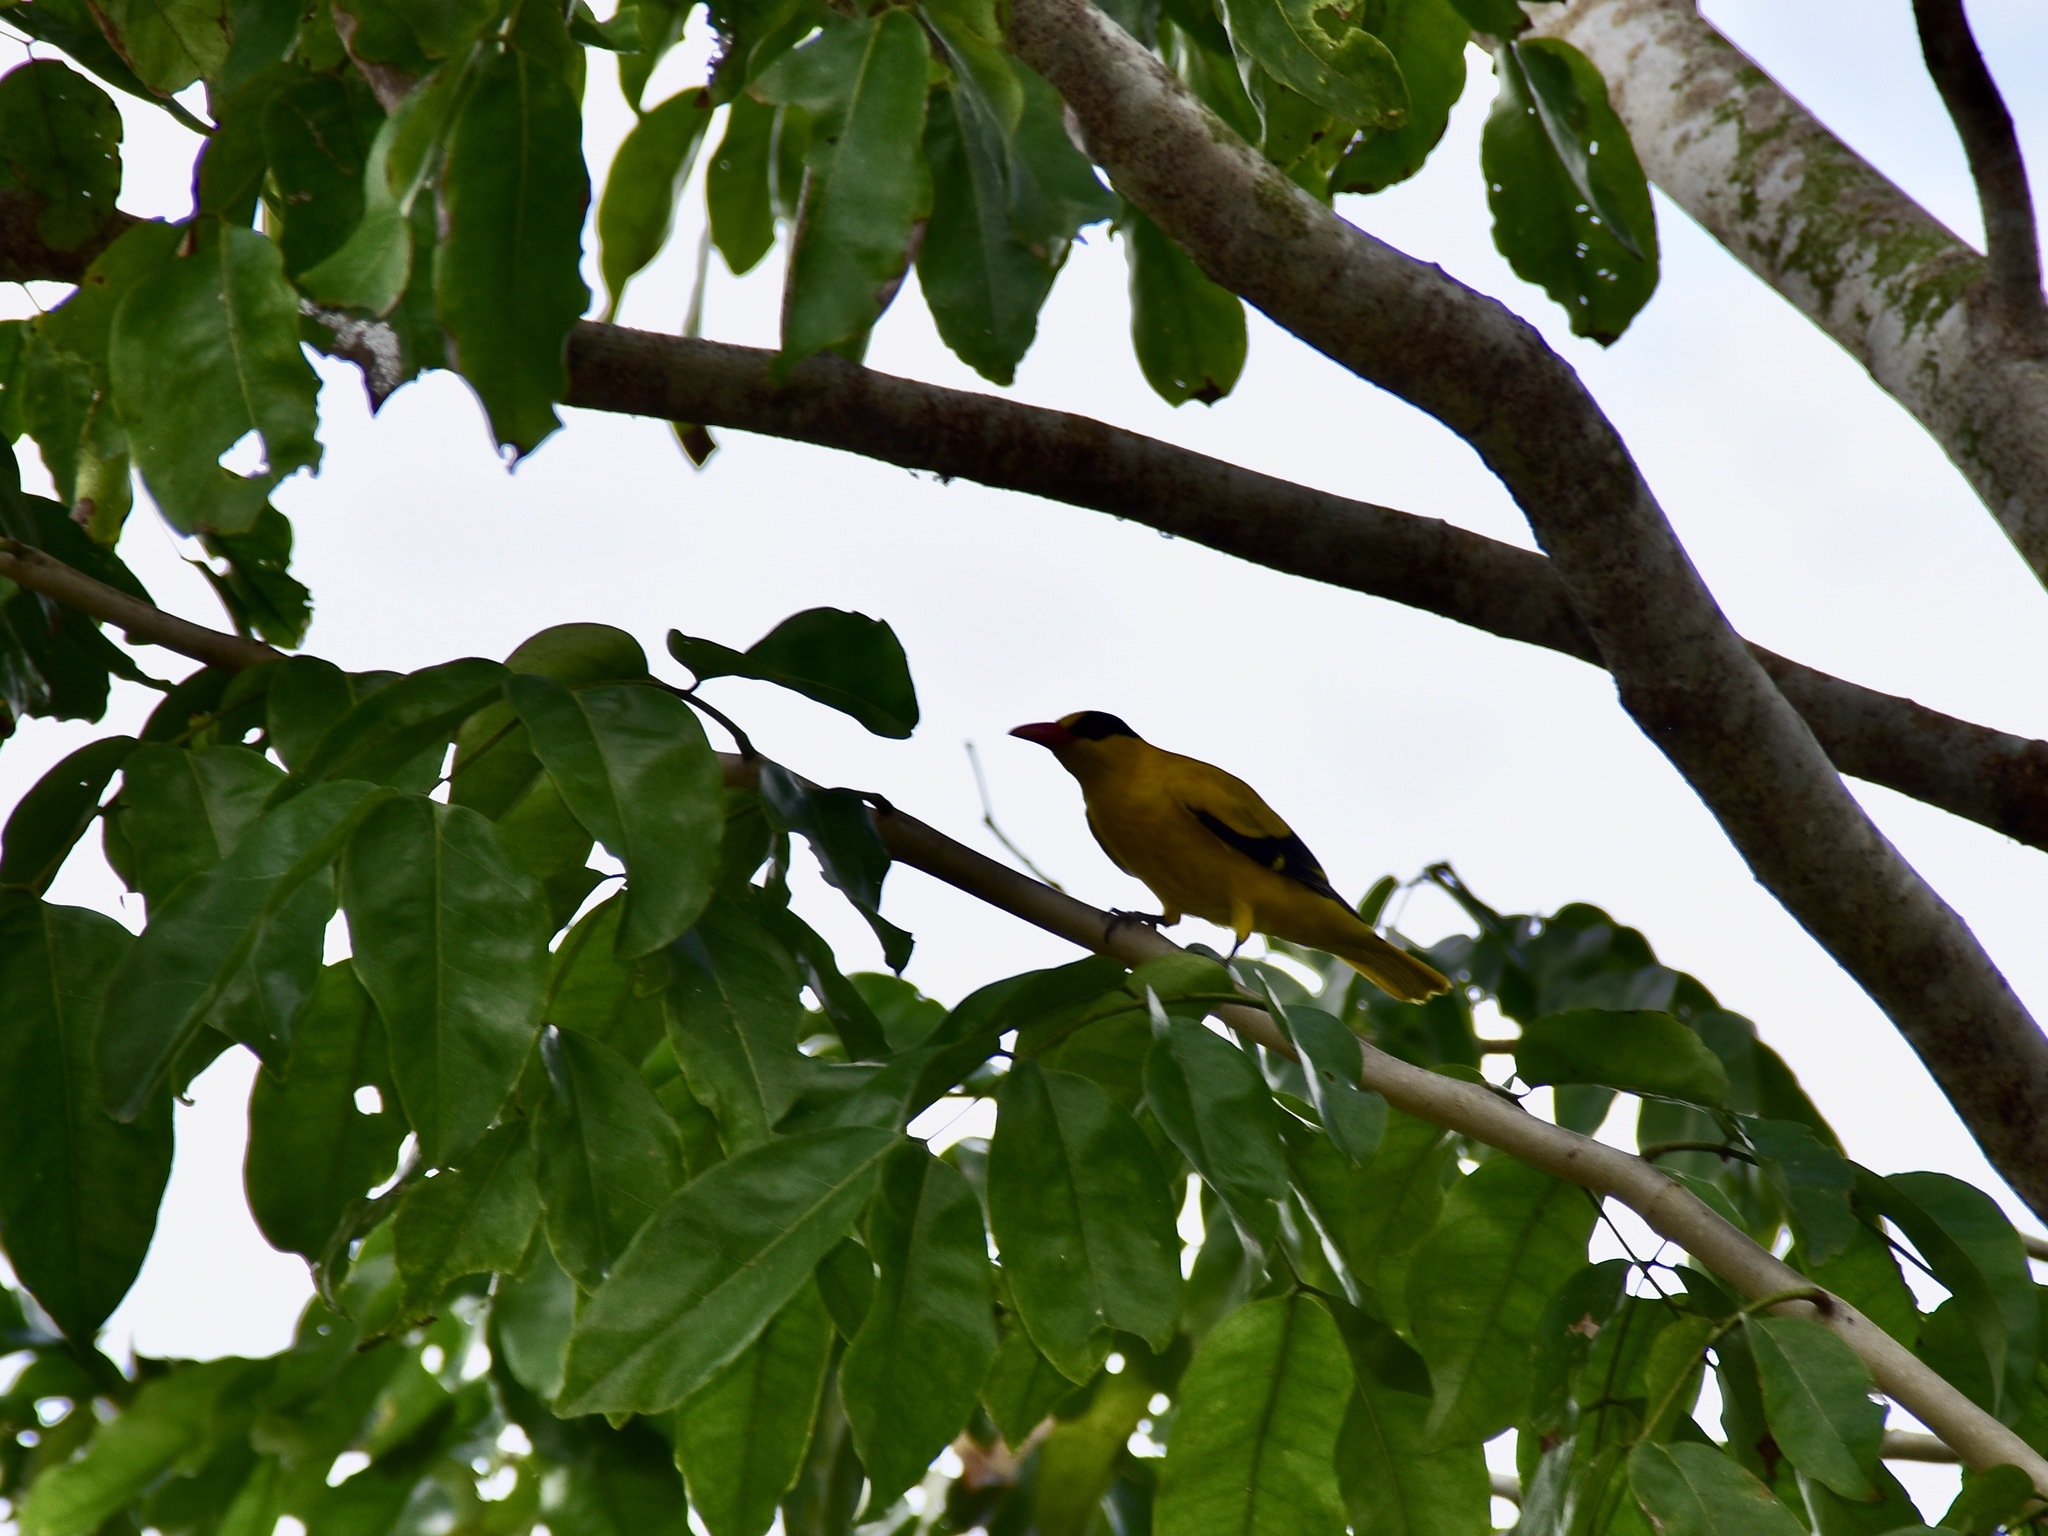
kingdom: Animalia
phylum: Chordata
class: Aves
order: Passeriformes
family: Oriolidae
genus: Oriolus
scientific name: Oriolus chinensis
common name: Black-naped oriole
